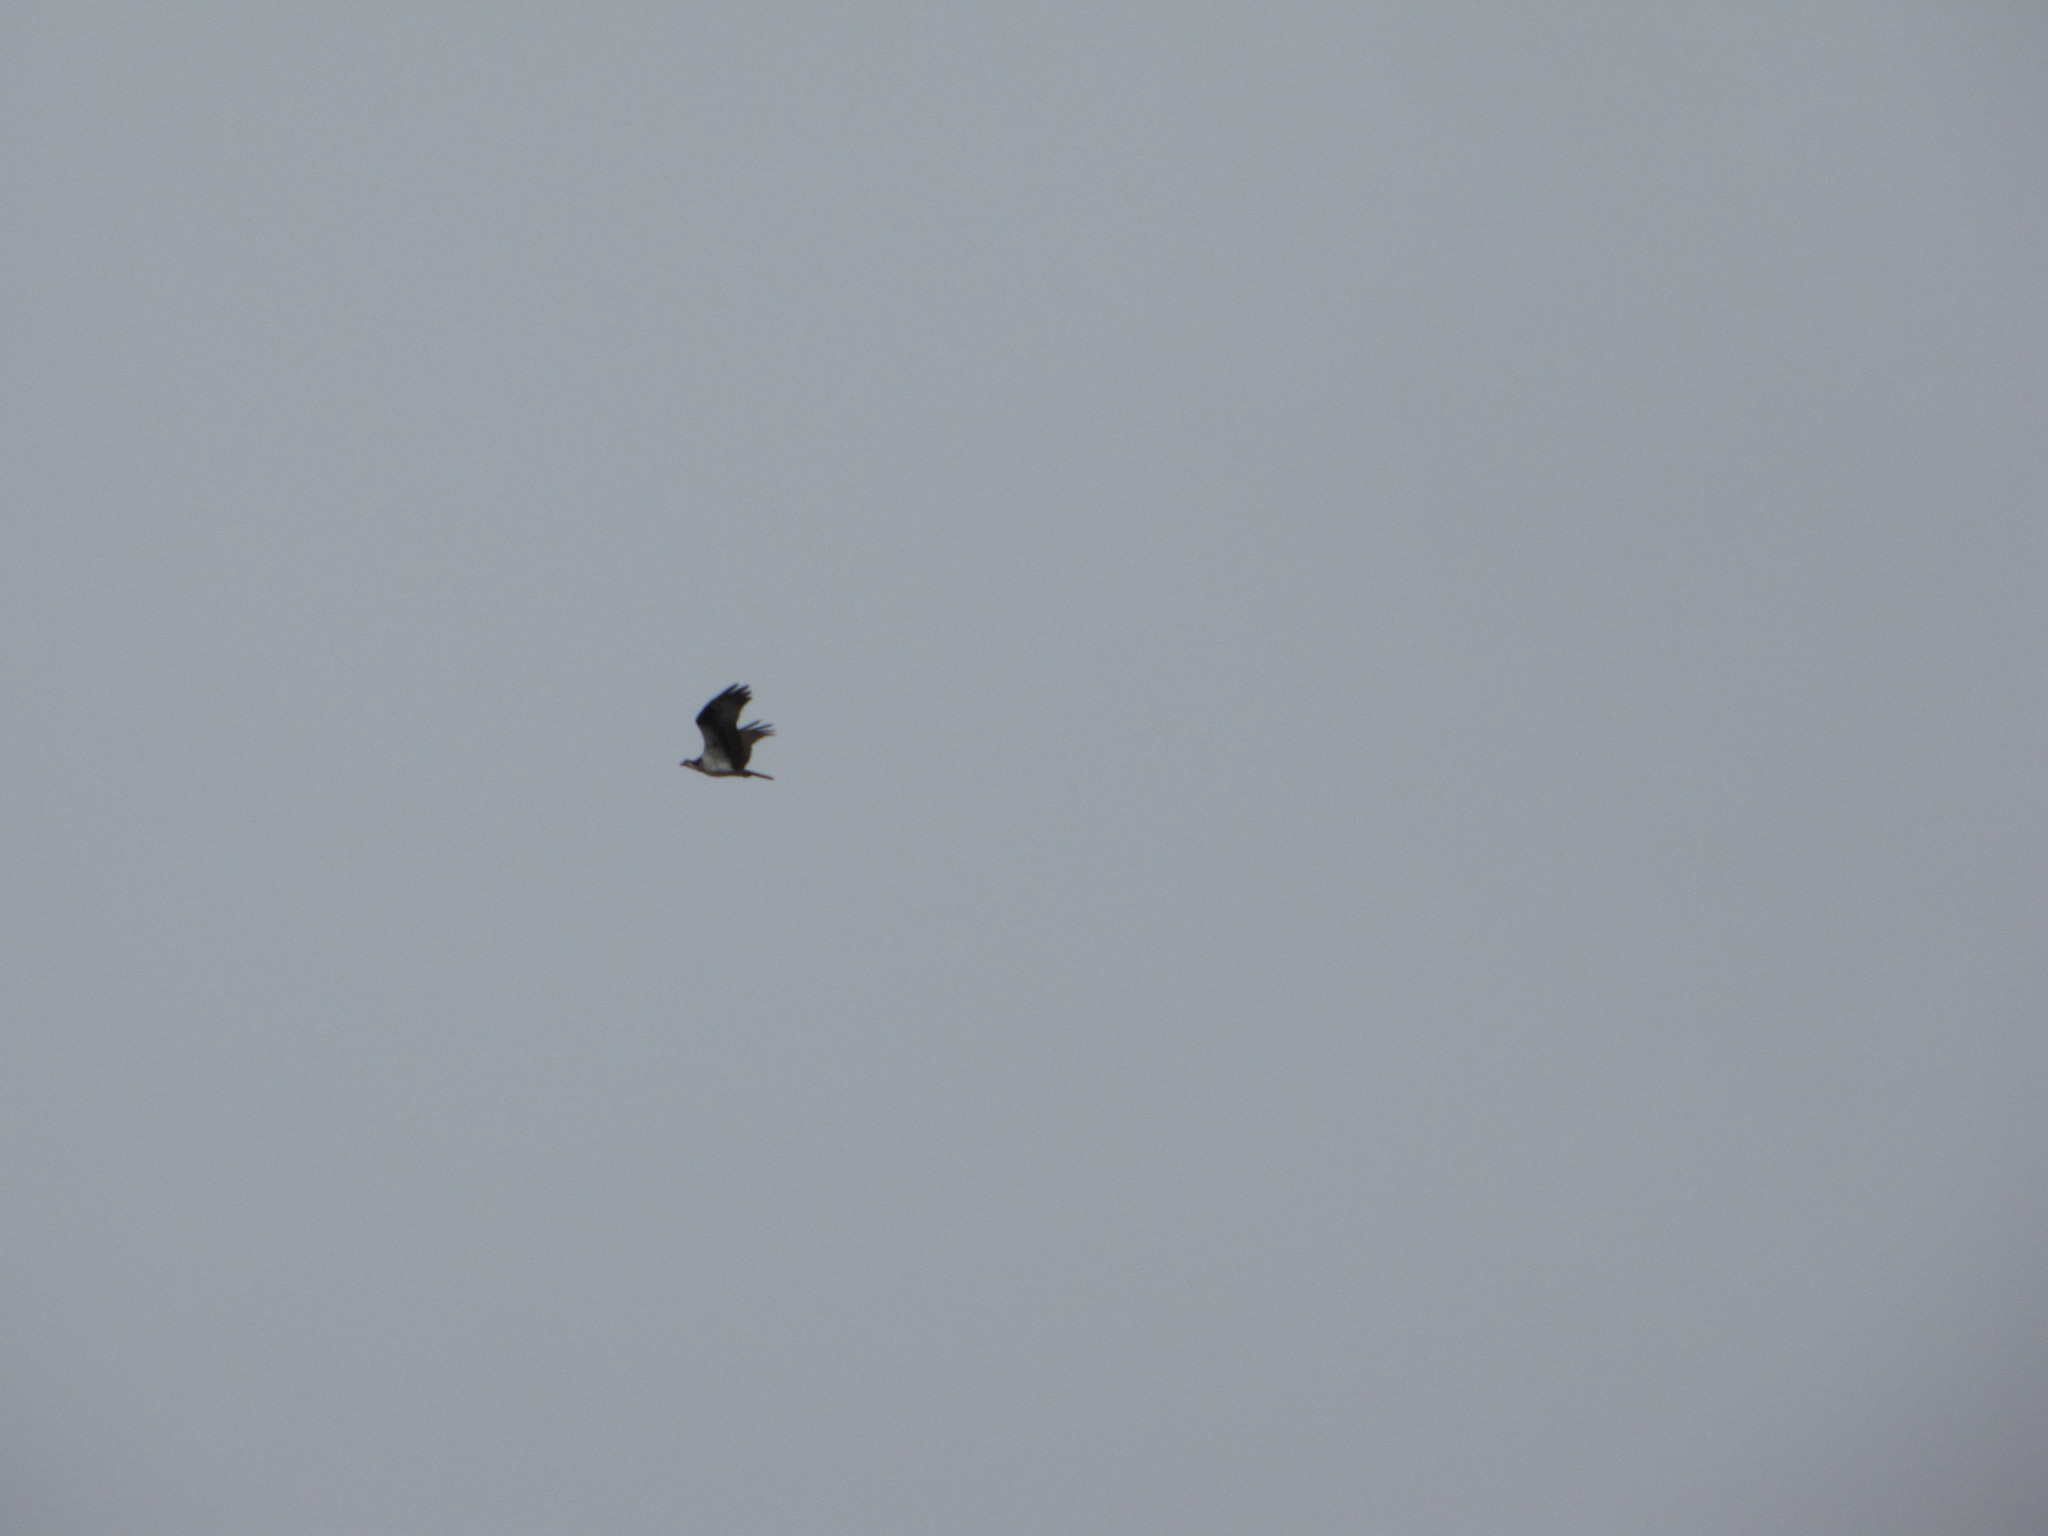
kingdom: Animalia
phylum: Chordata
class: Aves
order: Accipitriformes
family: Pandionidae
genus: Pandion
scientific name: Pandion haliaetus
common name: Osprey
